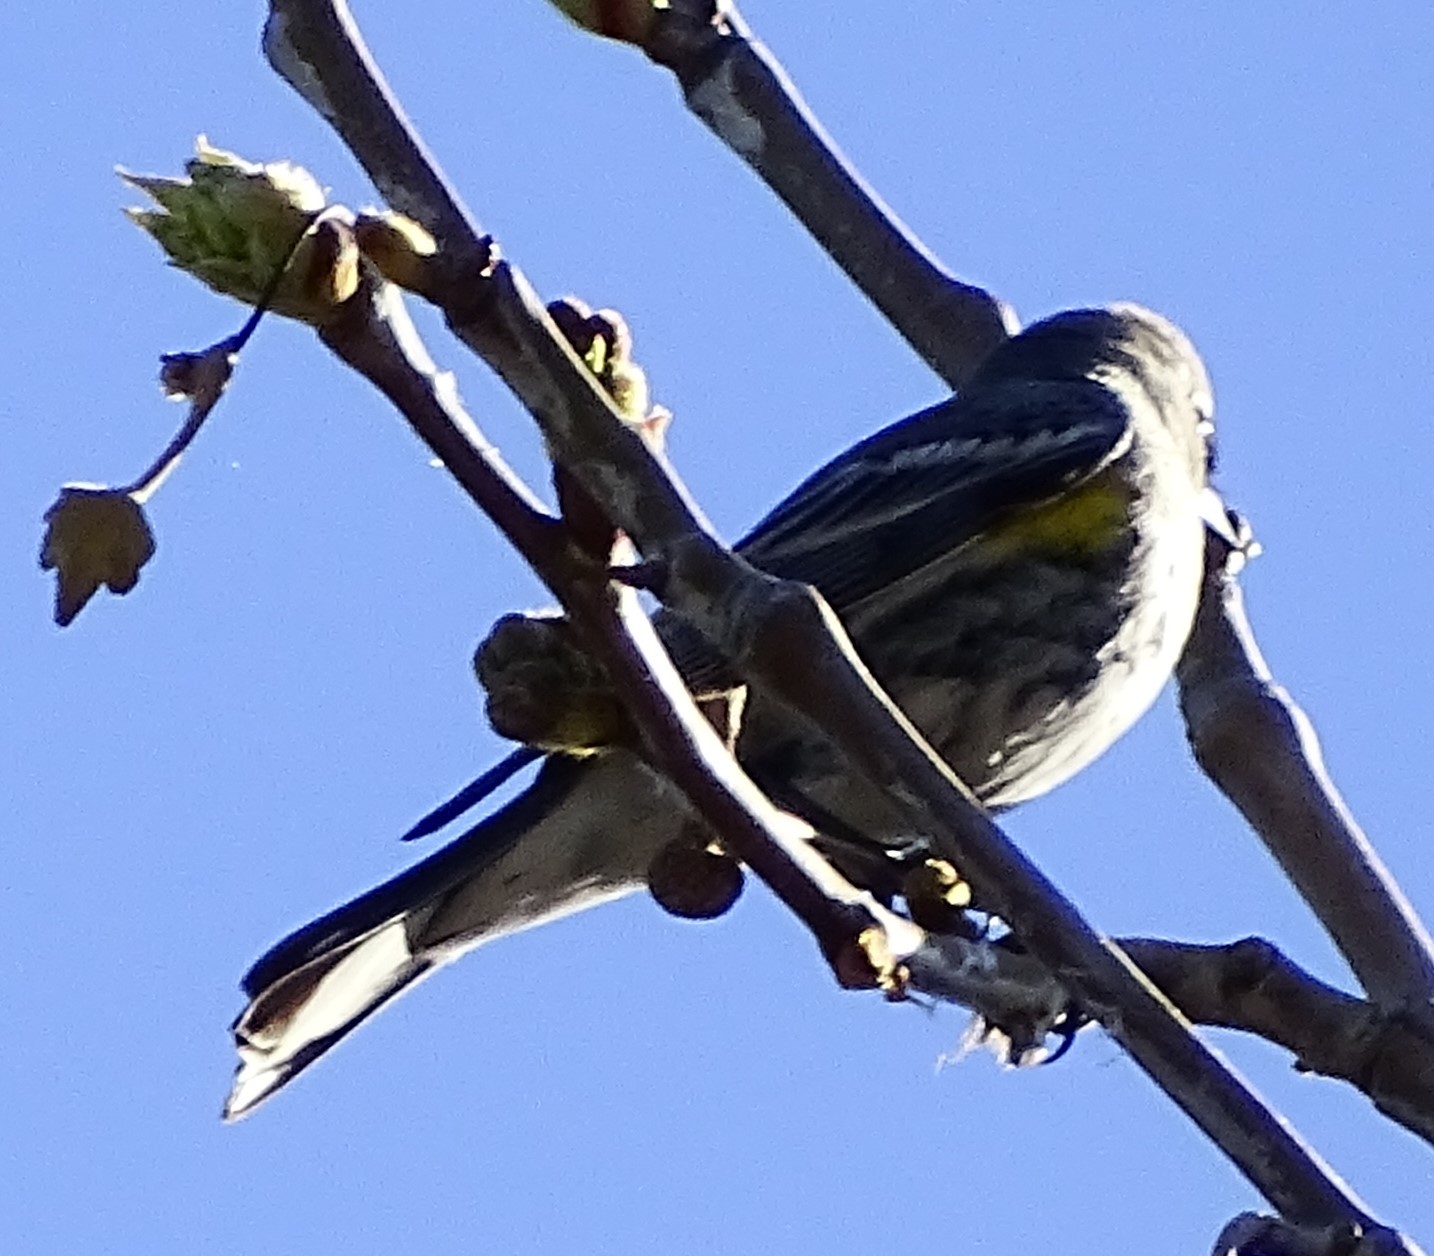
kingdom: Animalia
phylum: Chordata
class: Aves
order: Passeriformes
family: Parulidae
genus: Setophaga
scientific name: Setophaga coronata
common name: Myrtle warbler
